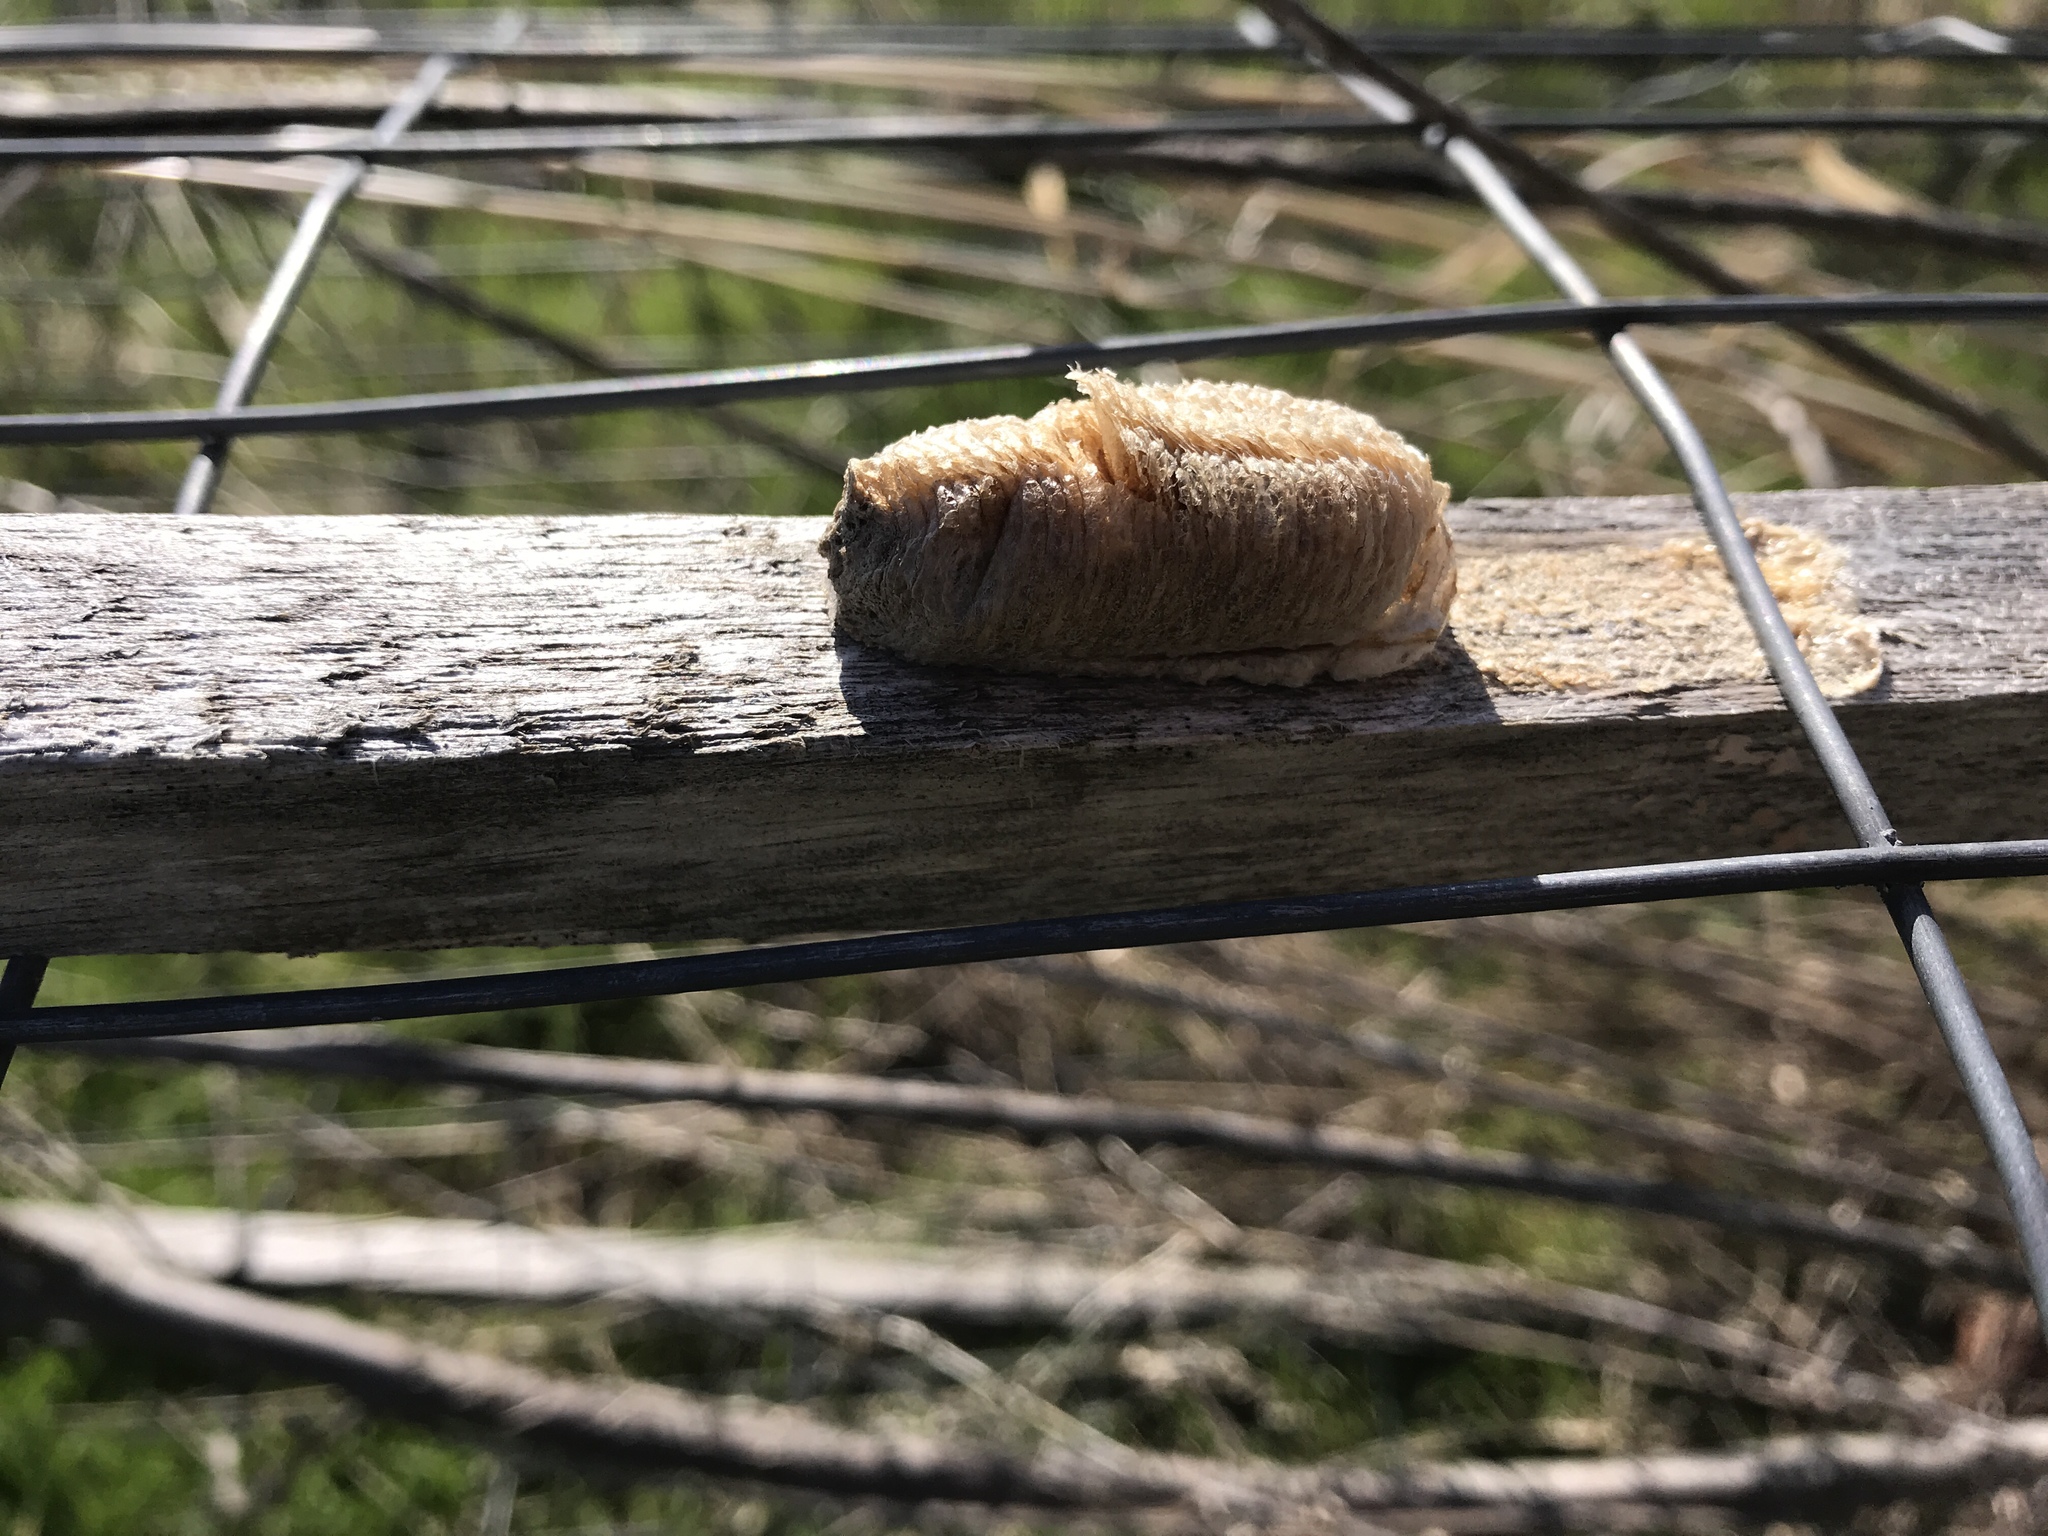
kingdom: Animalia
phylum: Arthropoda
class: Insecta
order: Mantodea
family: Mantidae
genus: Mantis
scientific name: Mantis religiosa
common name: Praying mantis
